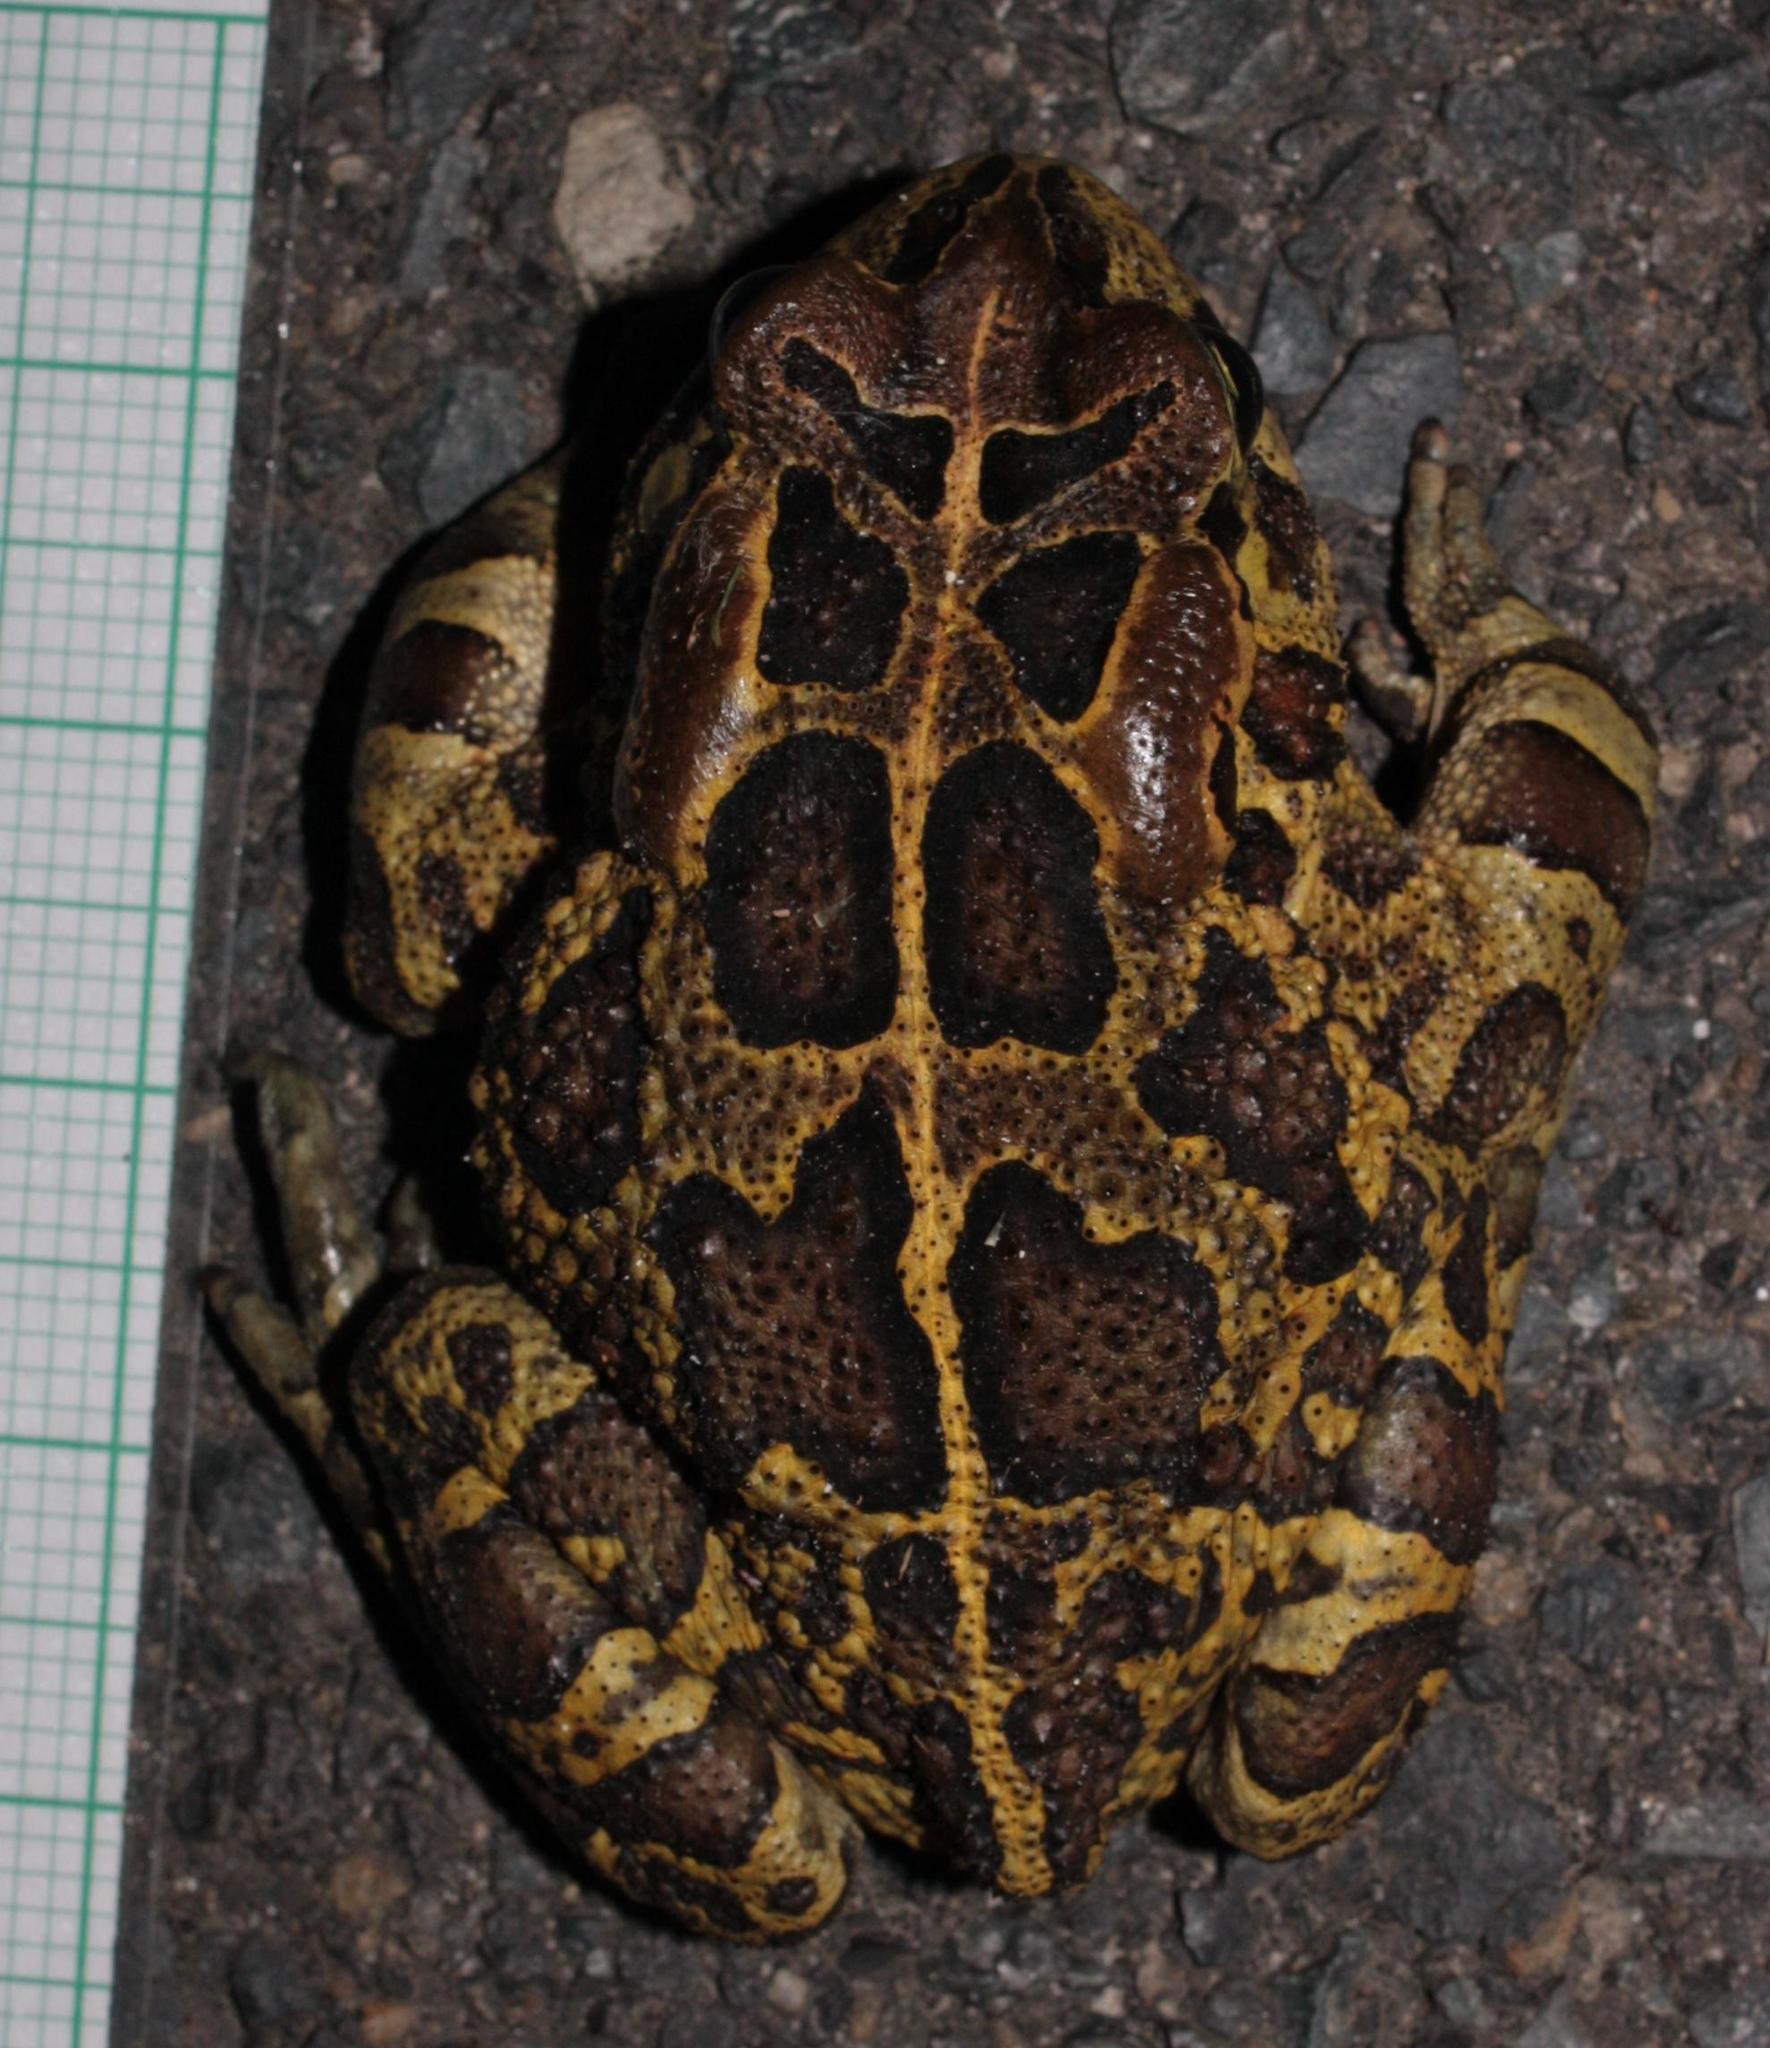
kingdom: Animalia
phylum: Chordata
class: Amphibia
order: Anura
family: Bufonidae
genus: Sclerophrys
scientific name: Sclerophrys pantherina
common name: Panther toad
